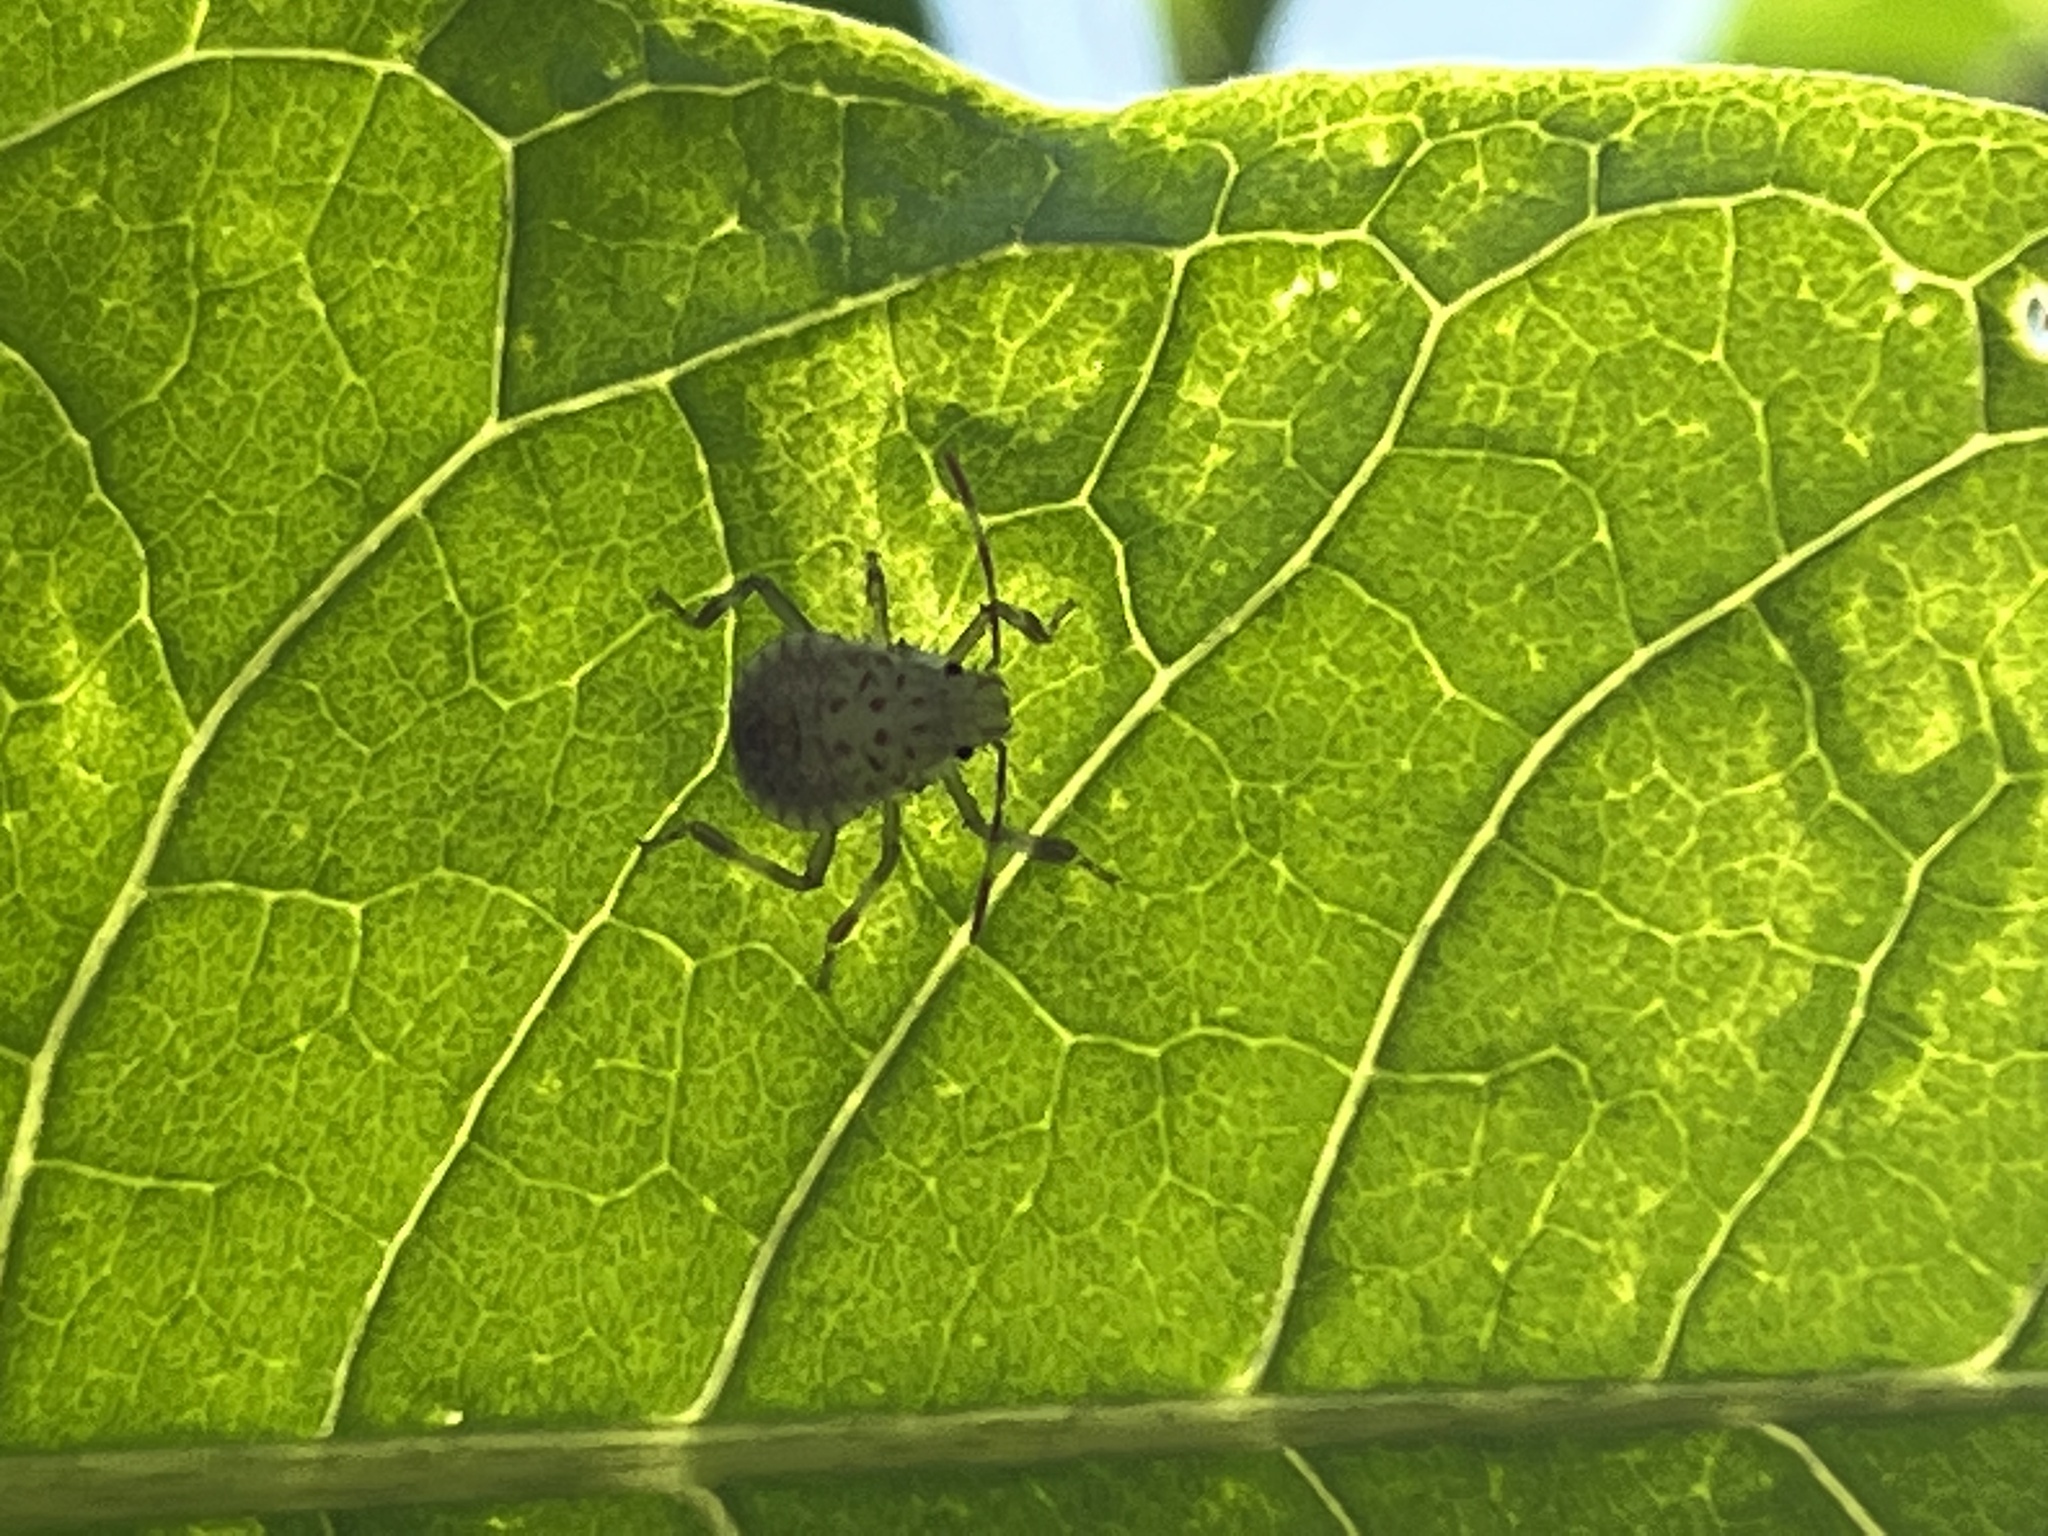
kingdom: Animalia
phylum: Arthropoda
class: Insecta
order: Hemiptera
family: Pentatomidae
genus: Halyomorpha
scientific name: Halyomorpha halys
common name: Brown marmorated stink bug
